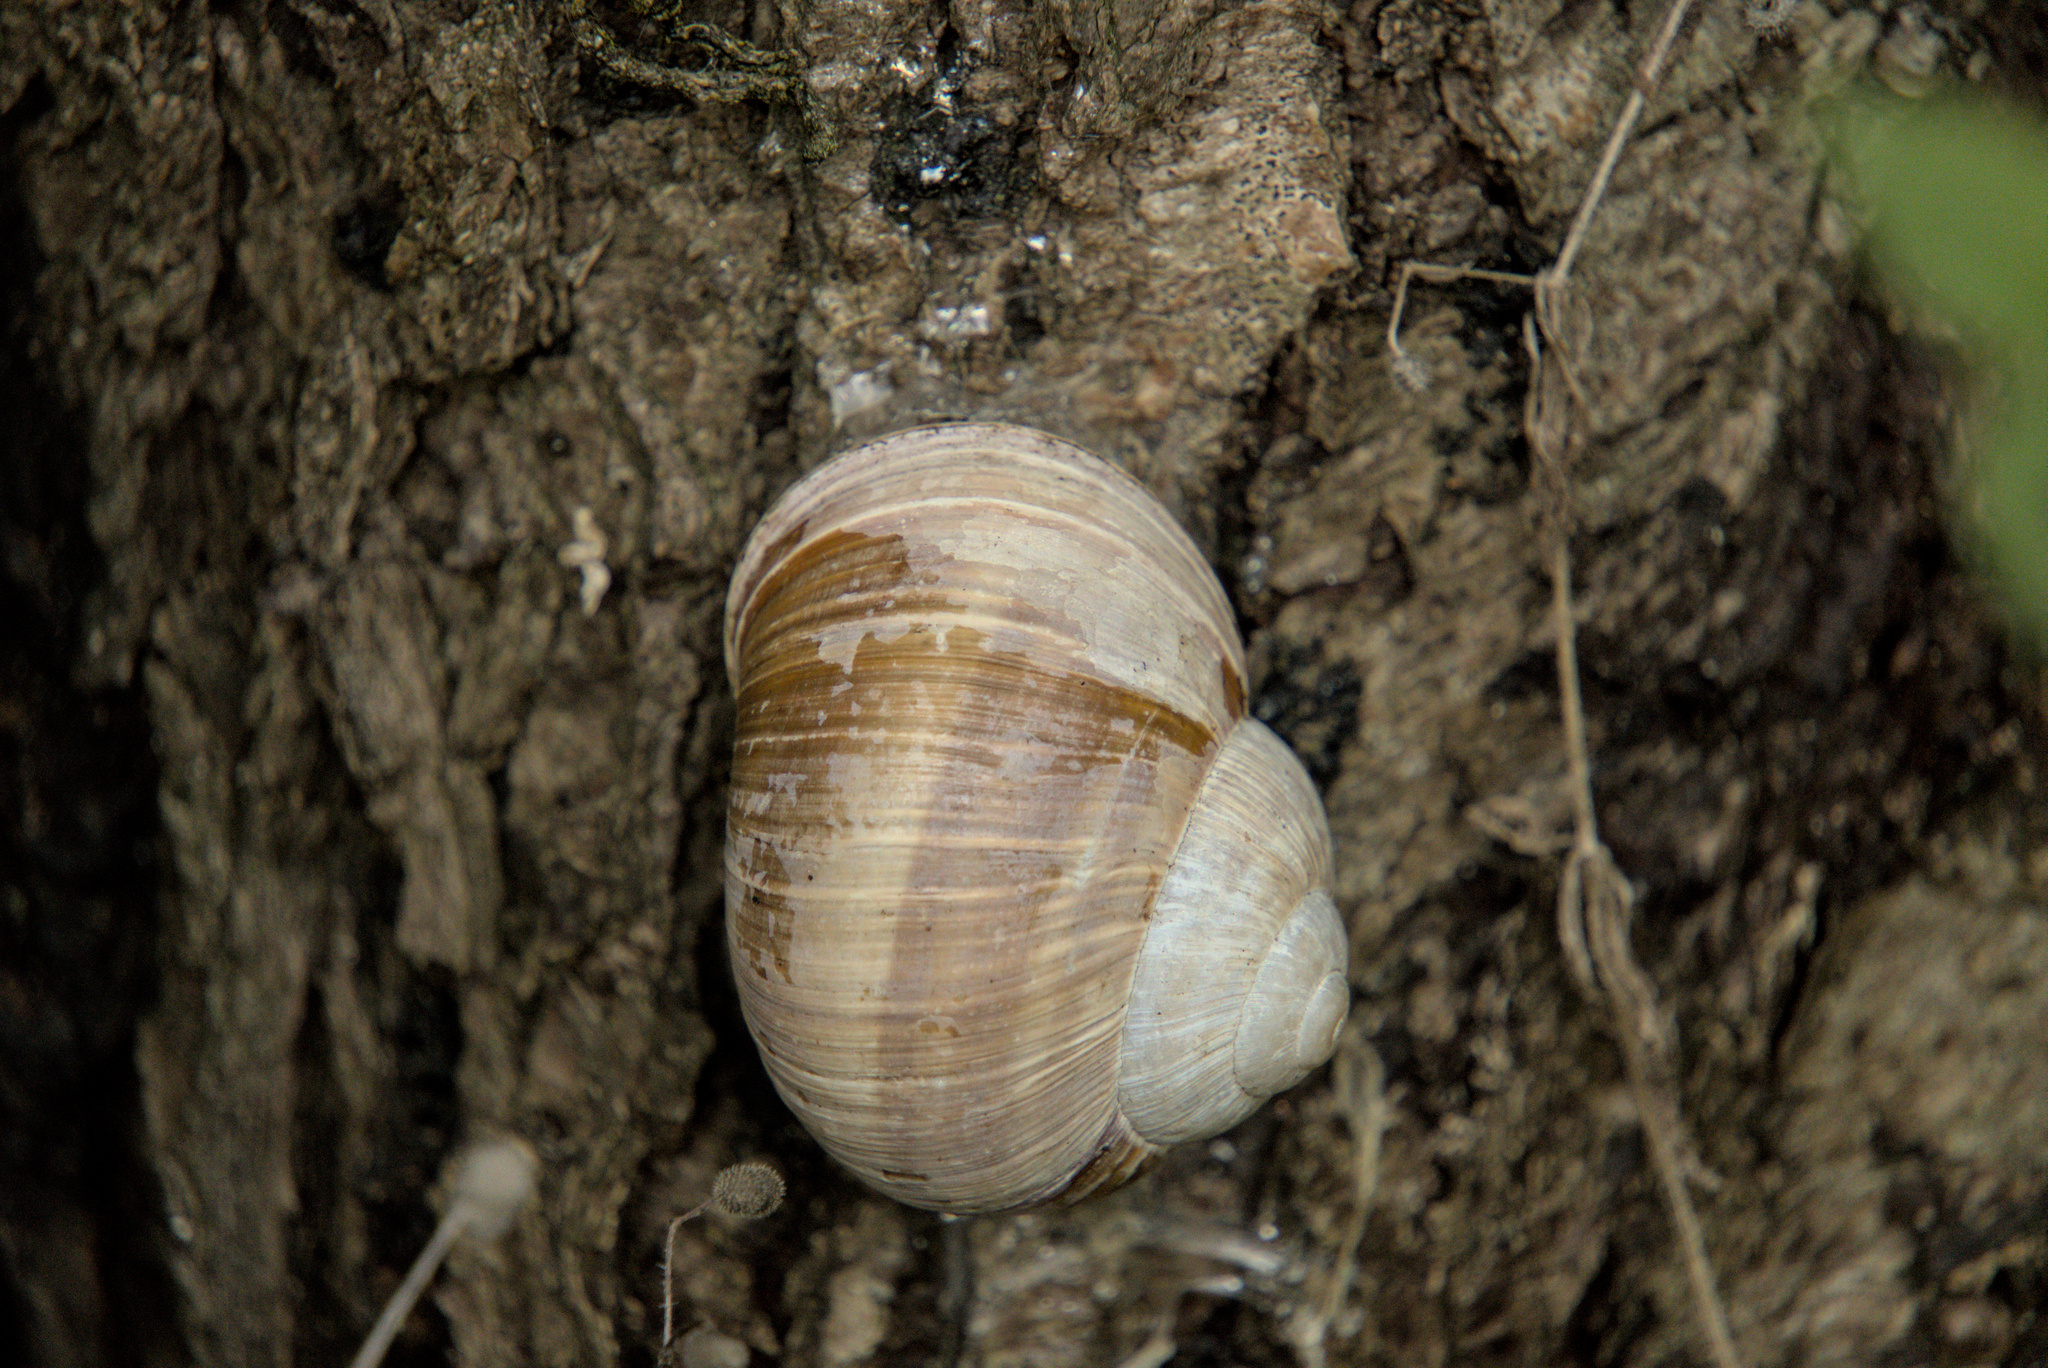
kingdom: Animalia
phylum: Mollusca
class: Gastropoda
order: Stylommatophora
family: Helicidae
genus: Helix
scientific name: Helix pomatia
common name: Roman snail
